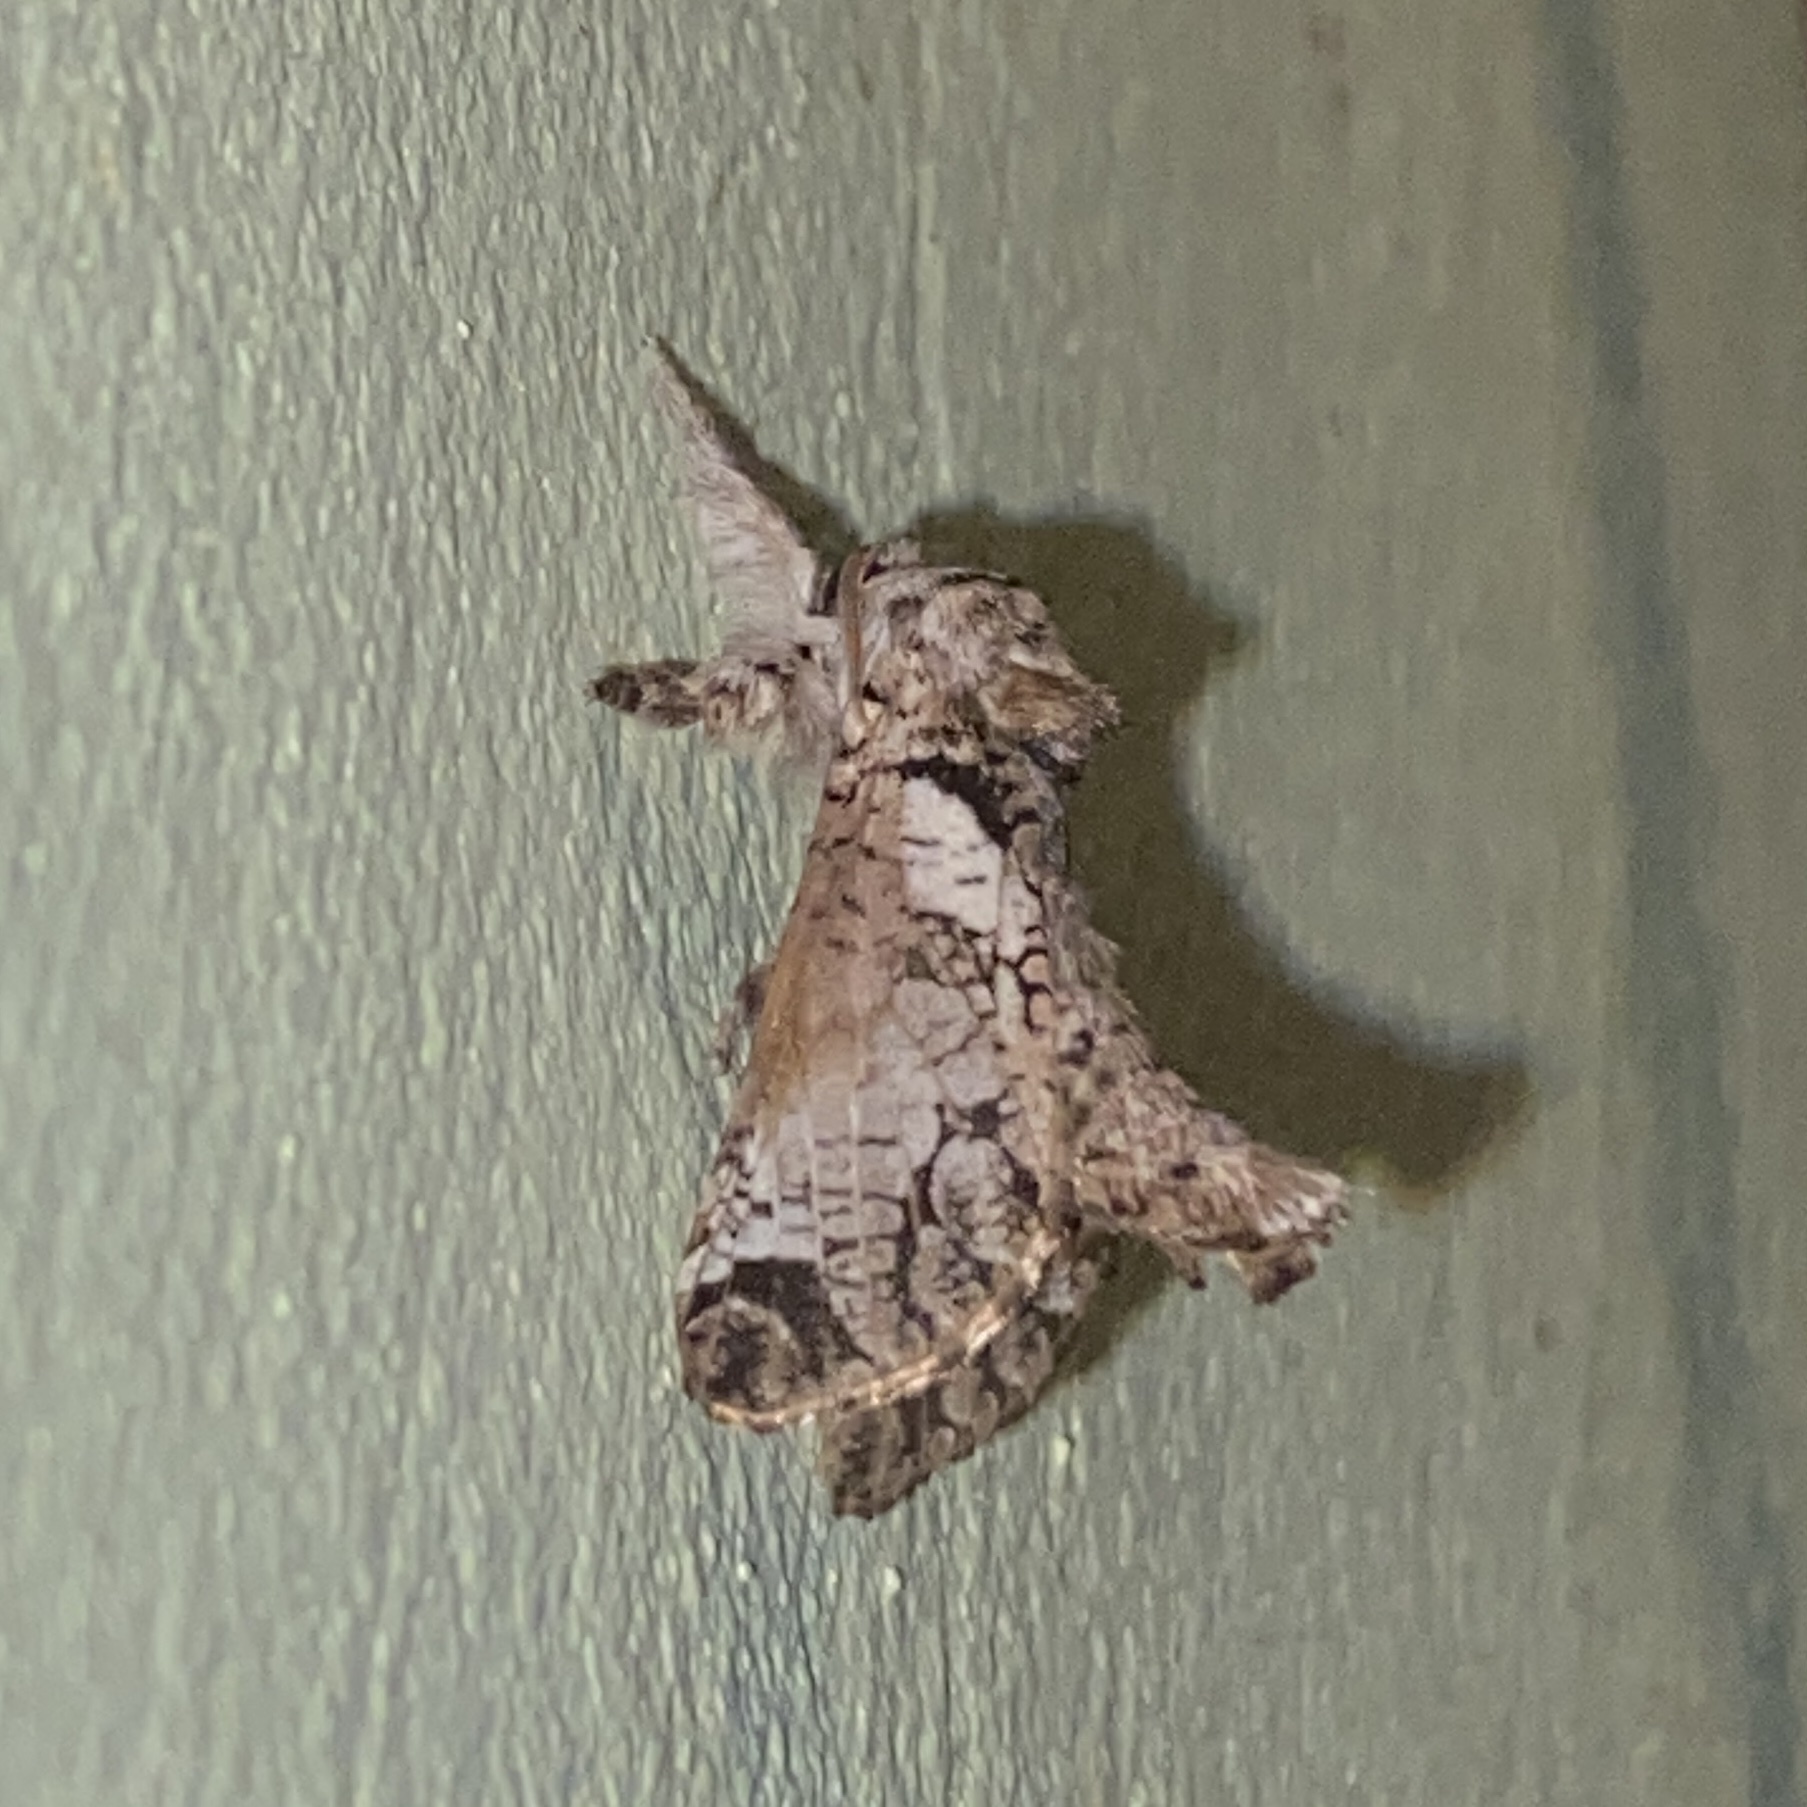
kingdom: Animalia
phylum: Arthropoda
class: Insecta
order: Lepidoptera
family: Cossidae
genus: Langsdorfia
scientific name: Langsdorfia polybia
